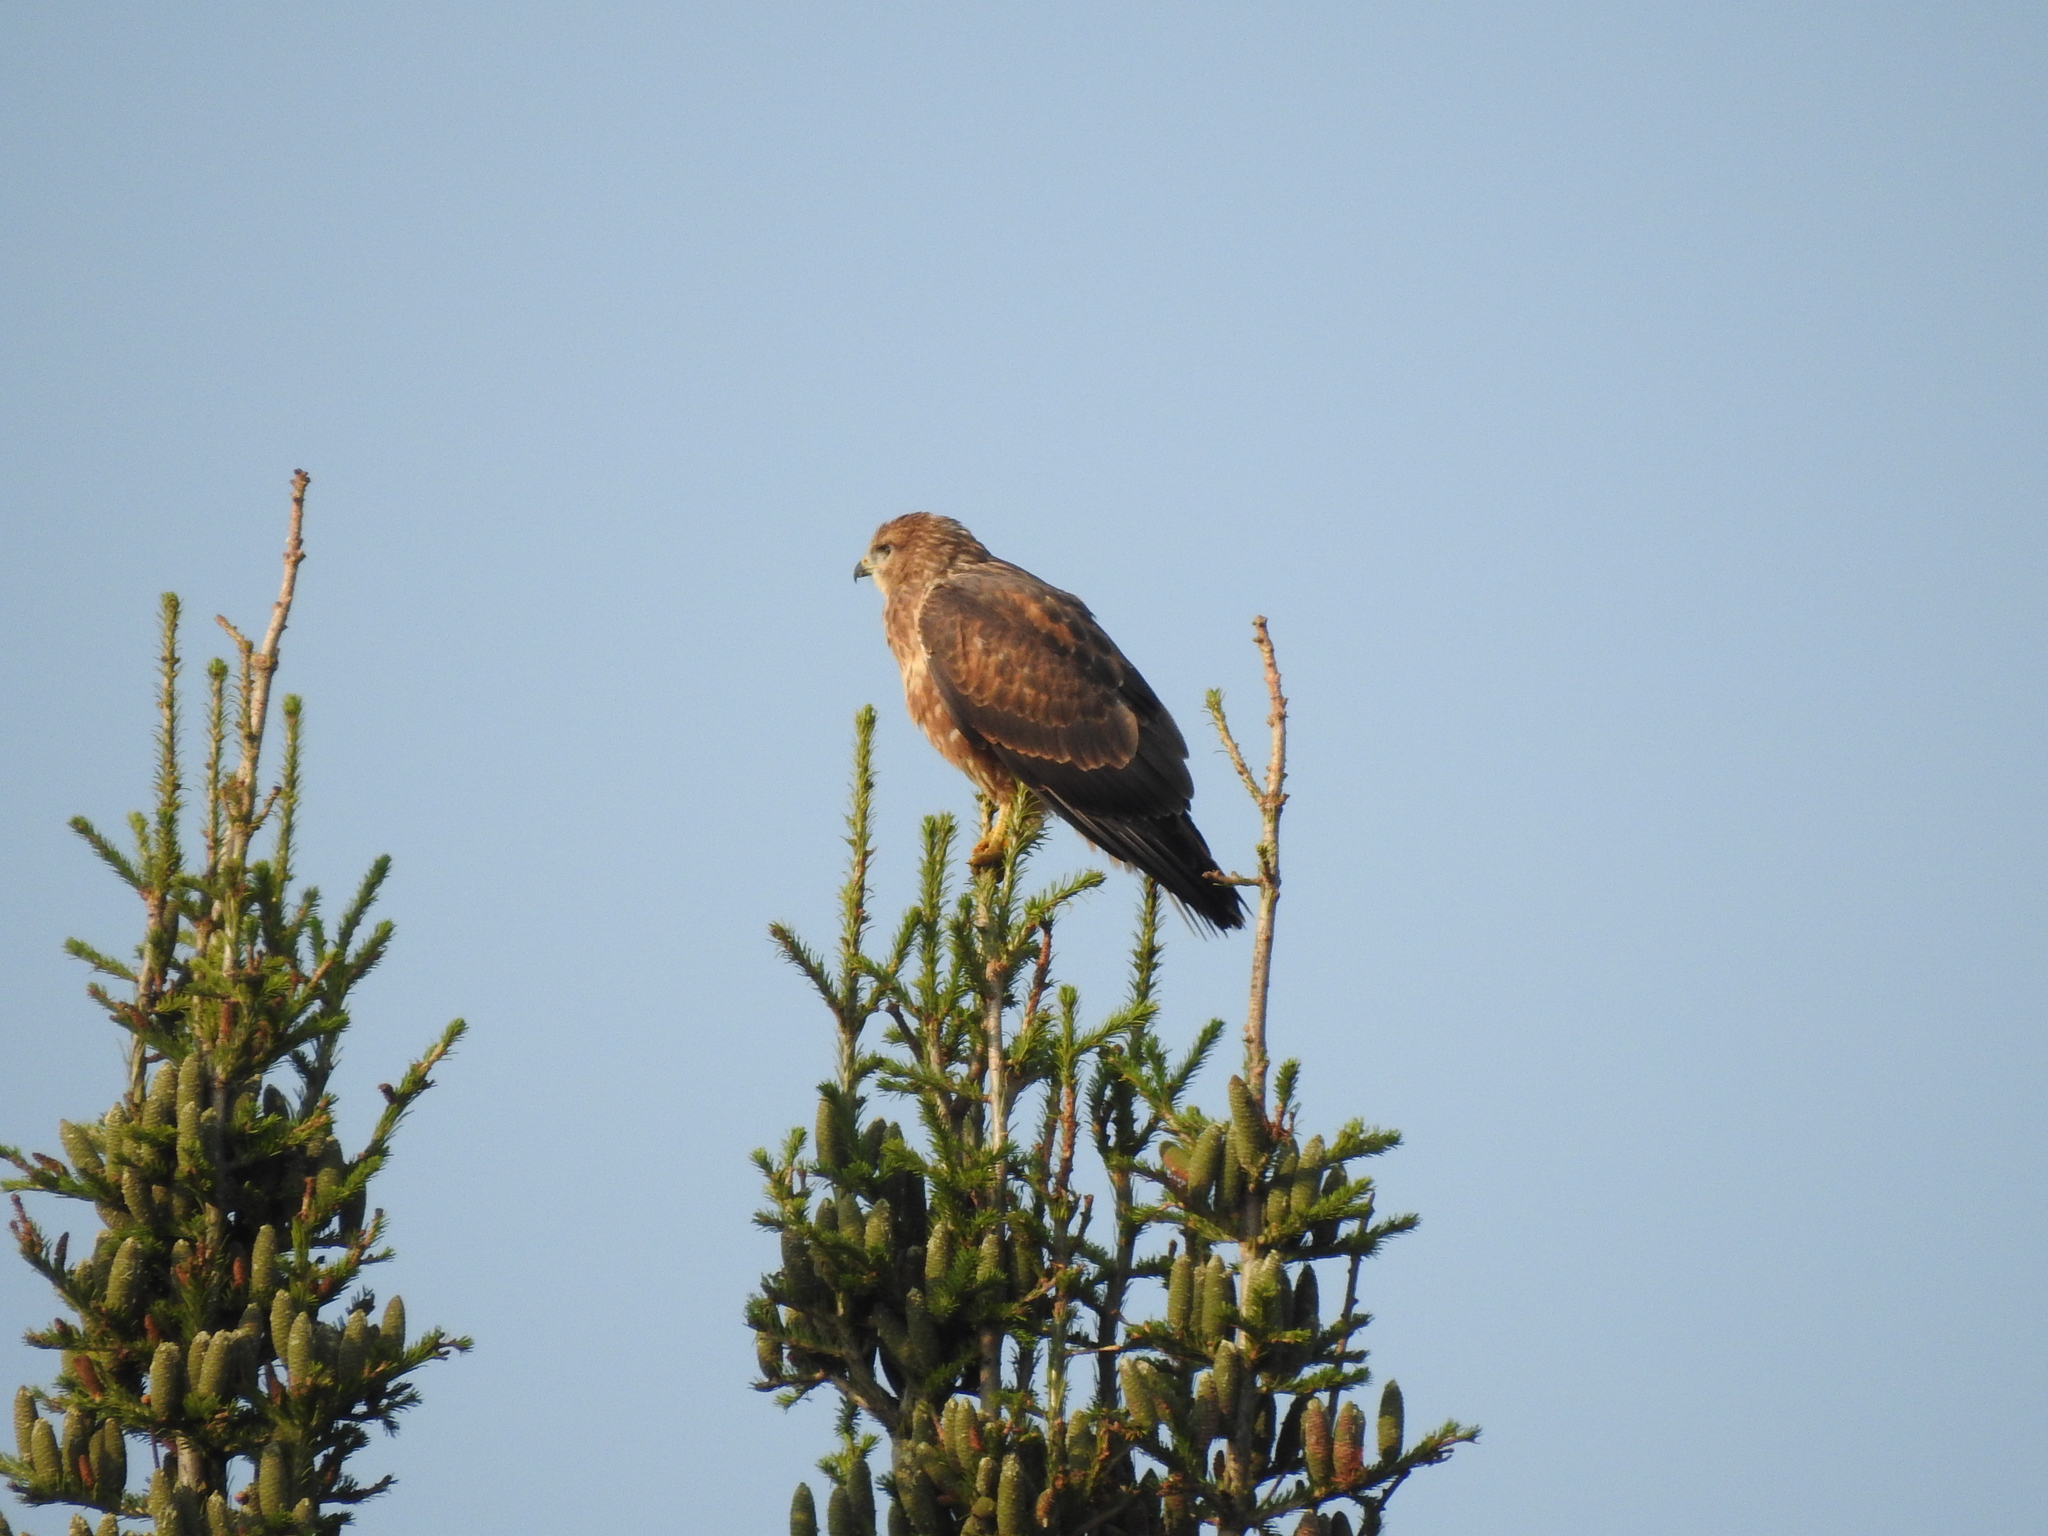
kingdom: Animalia
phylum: Chordata
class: Aves
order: Accipitriformes
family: Accipitridae
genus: Buteo
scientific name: Buteo buteo
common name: Common buzzard
